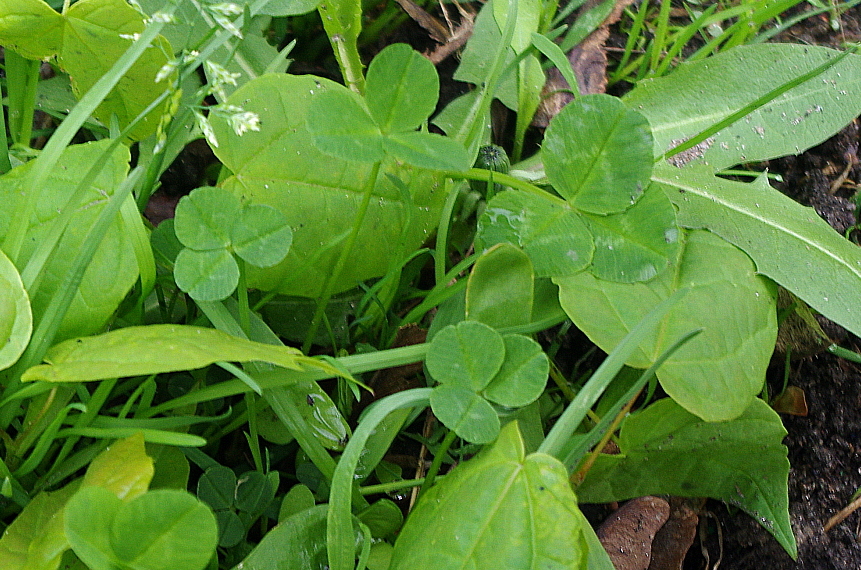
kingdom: Plantae
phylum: Tracheophyta
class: Magnoliopsida
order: Fabales
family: Fabaceae
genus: Trifolium
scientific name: Trifolium repens
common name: White clover
